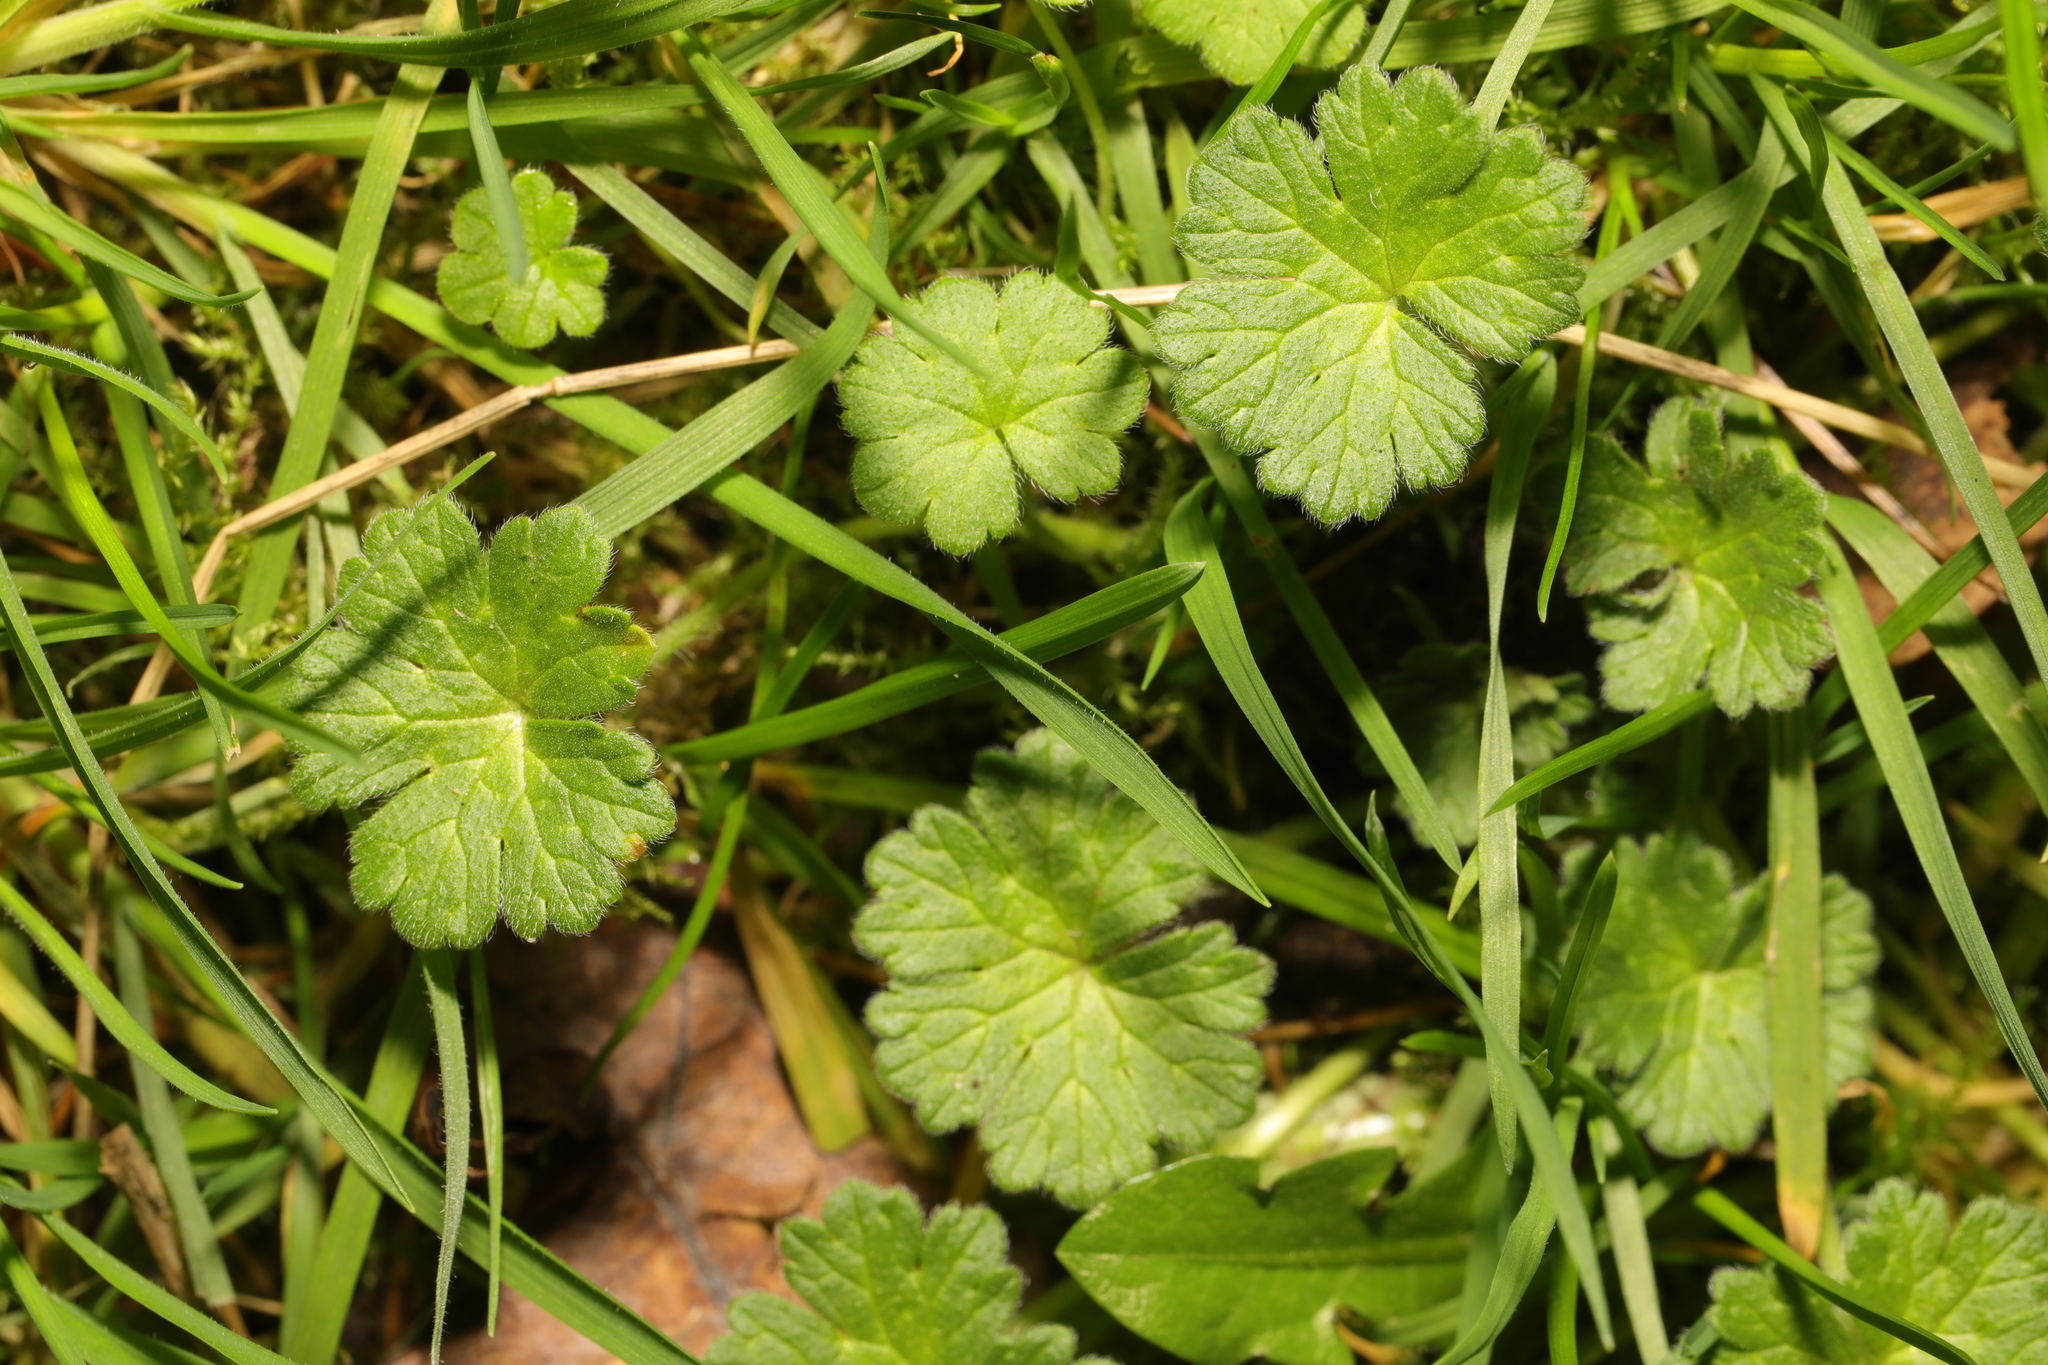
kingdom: Plantae
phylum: Tracheophyta
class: Magnoliopsida
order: Geraniales
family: Geraniaceae
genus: Geranium
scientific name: Geranium molle
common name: Dove's-foot crane's-bill
